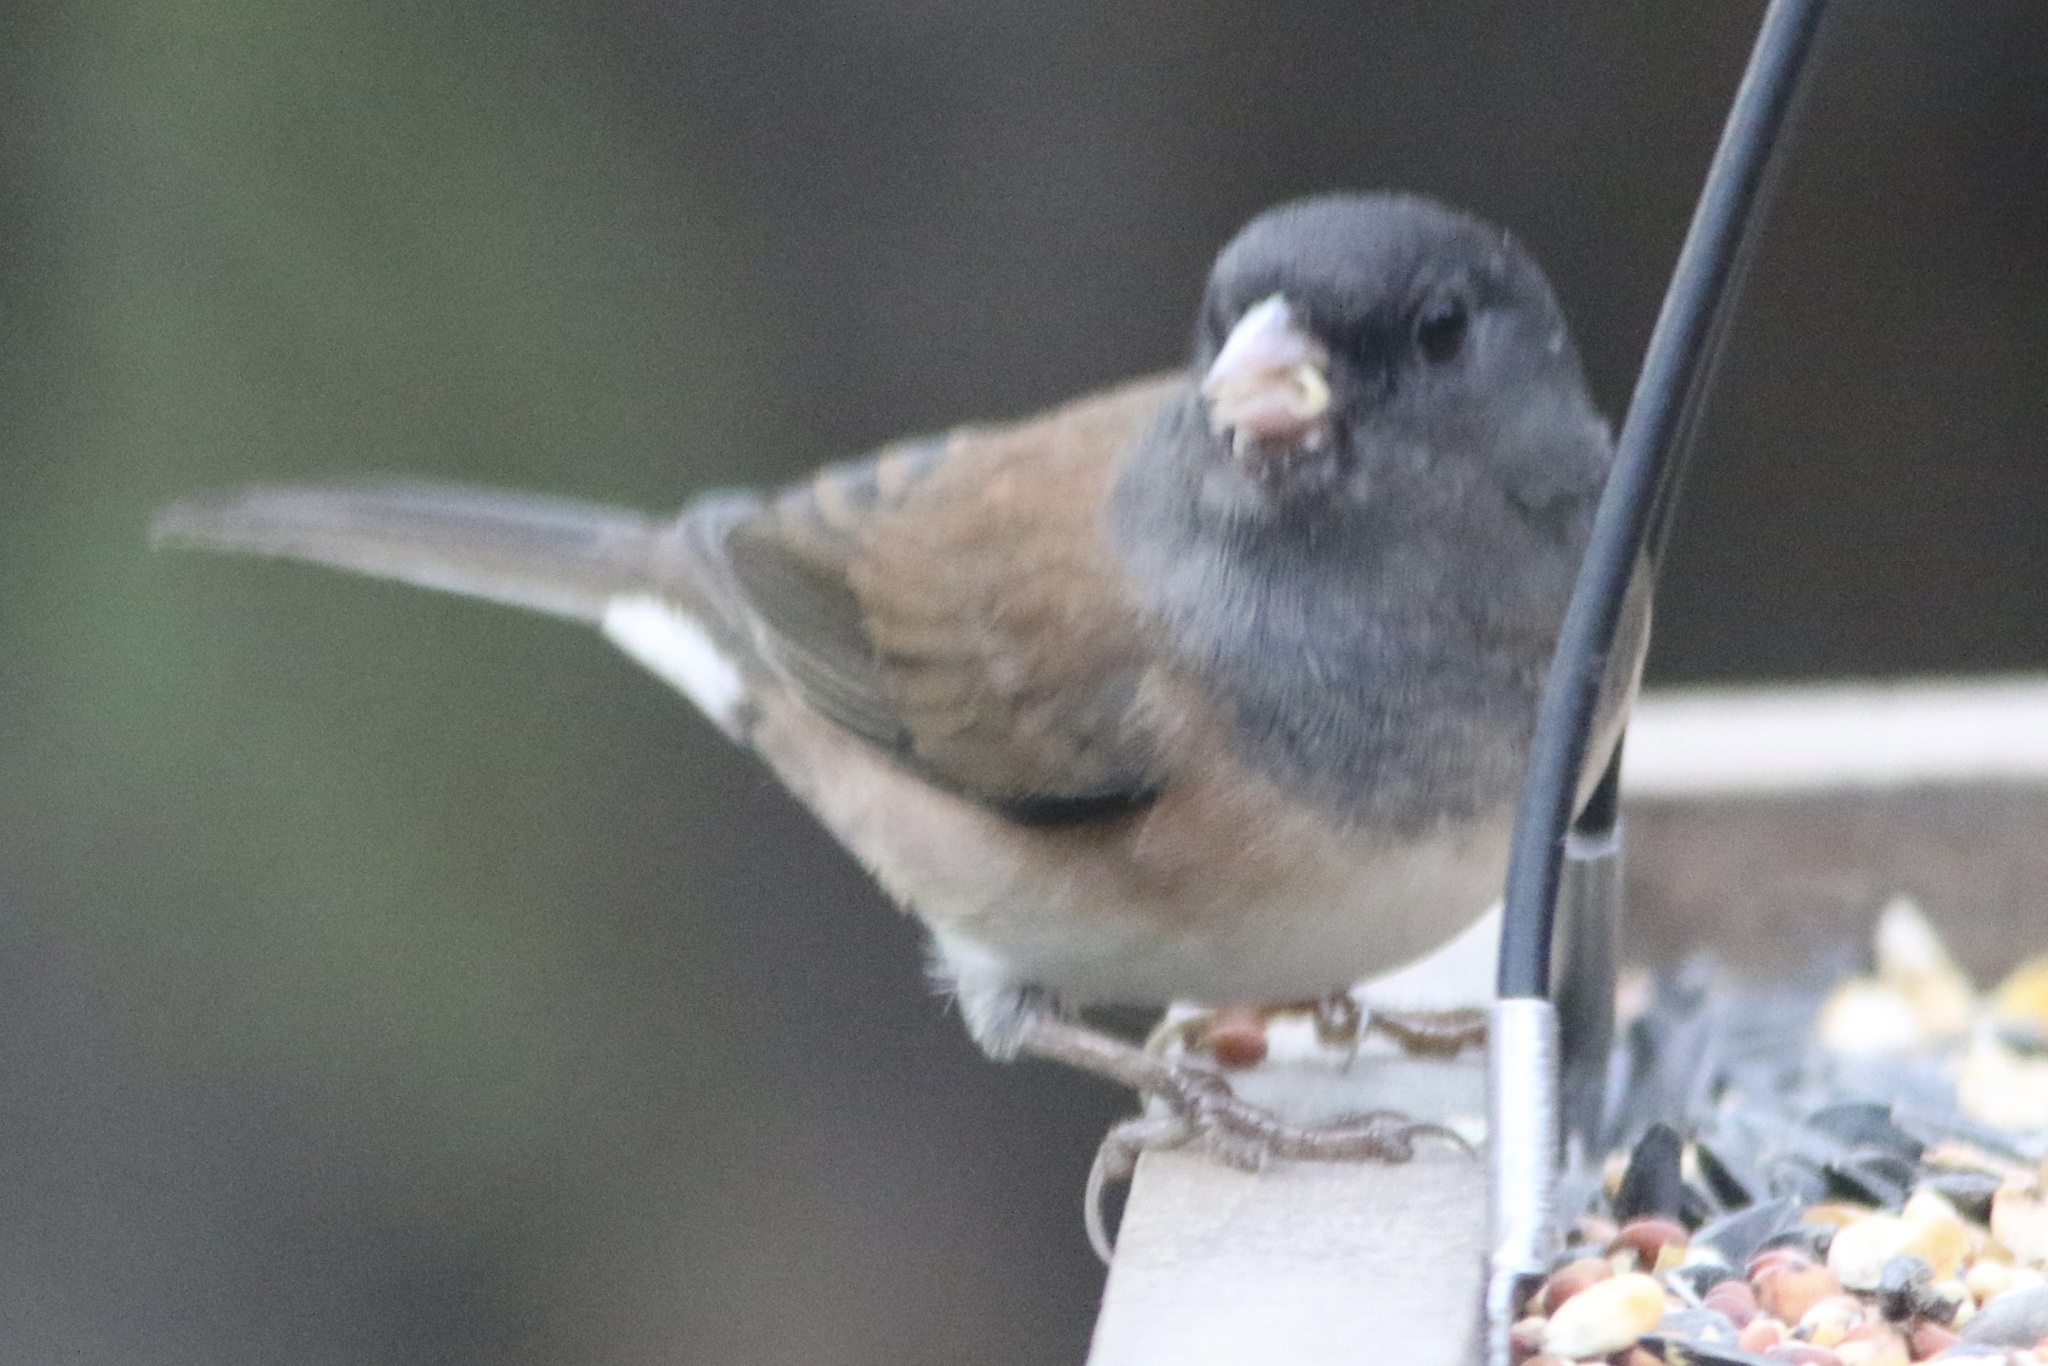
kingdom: Animalia
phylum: Chordata
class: Aves
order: Passeriformes
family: Passerellidae
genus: Junco
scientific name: Junco hyemalis
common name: Dark-eyed junco
